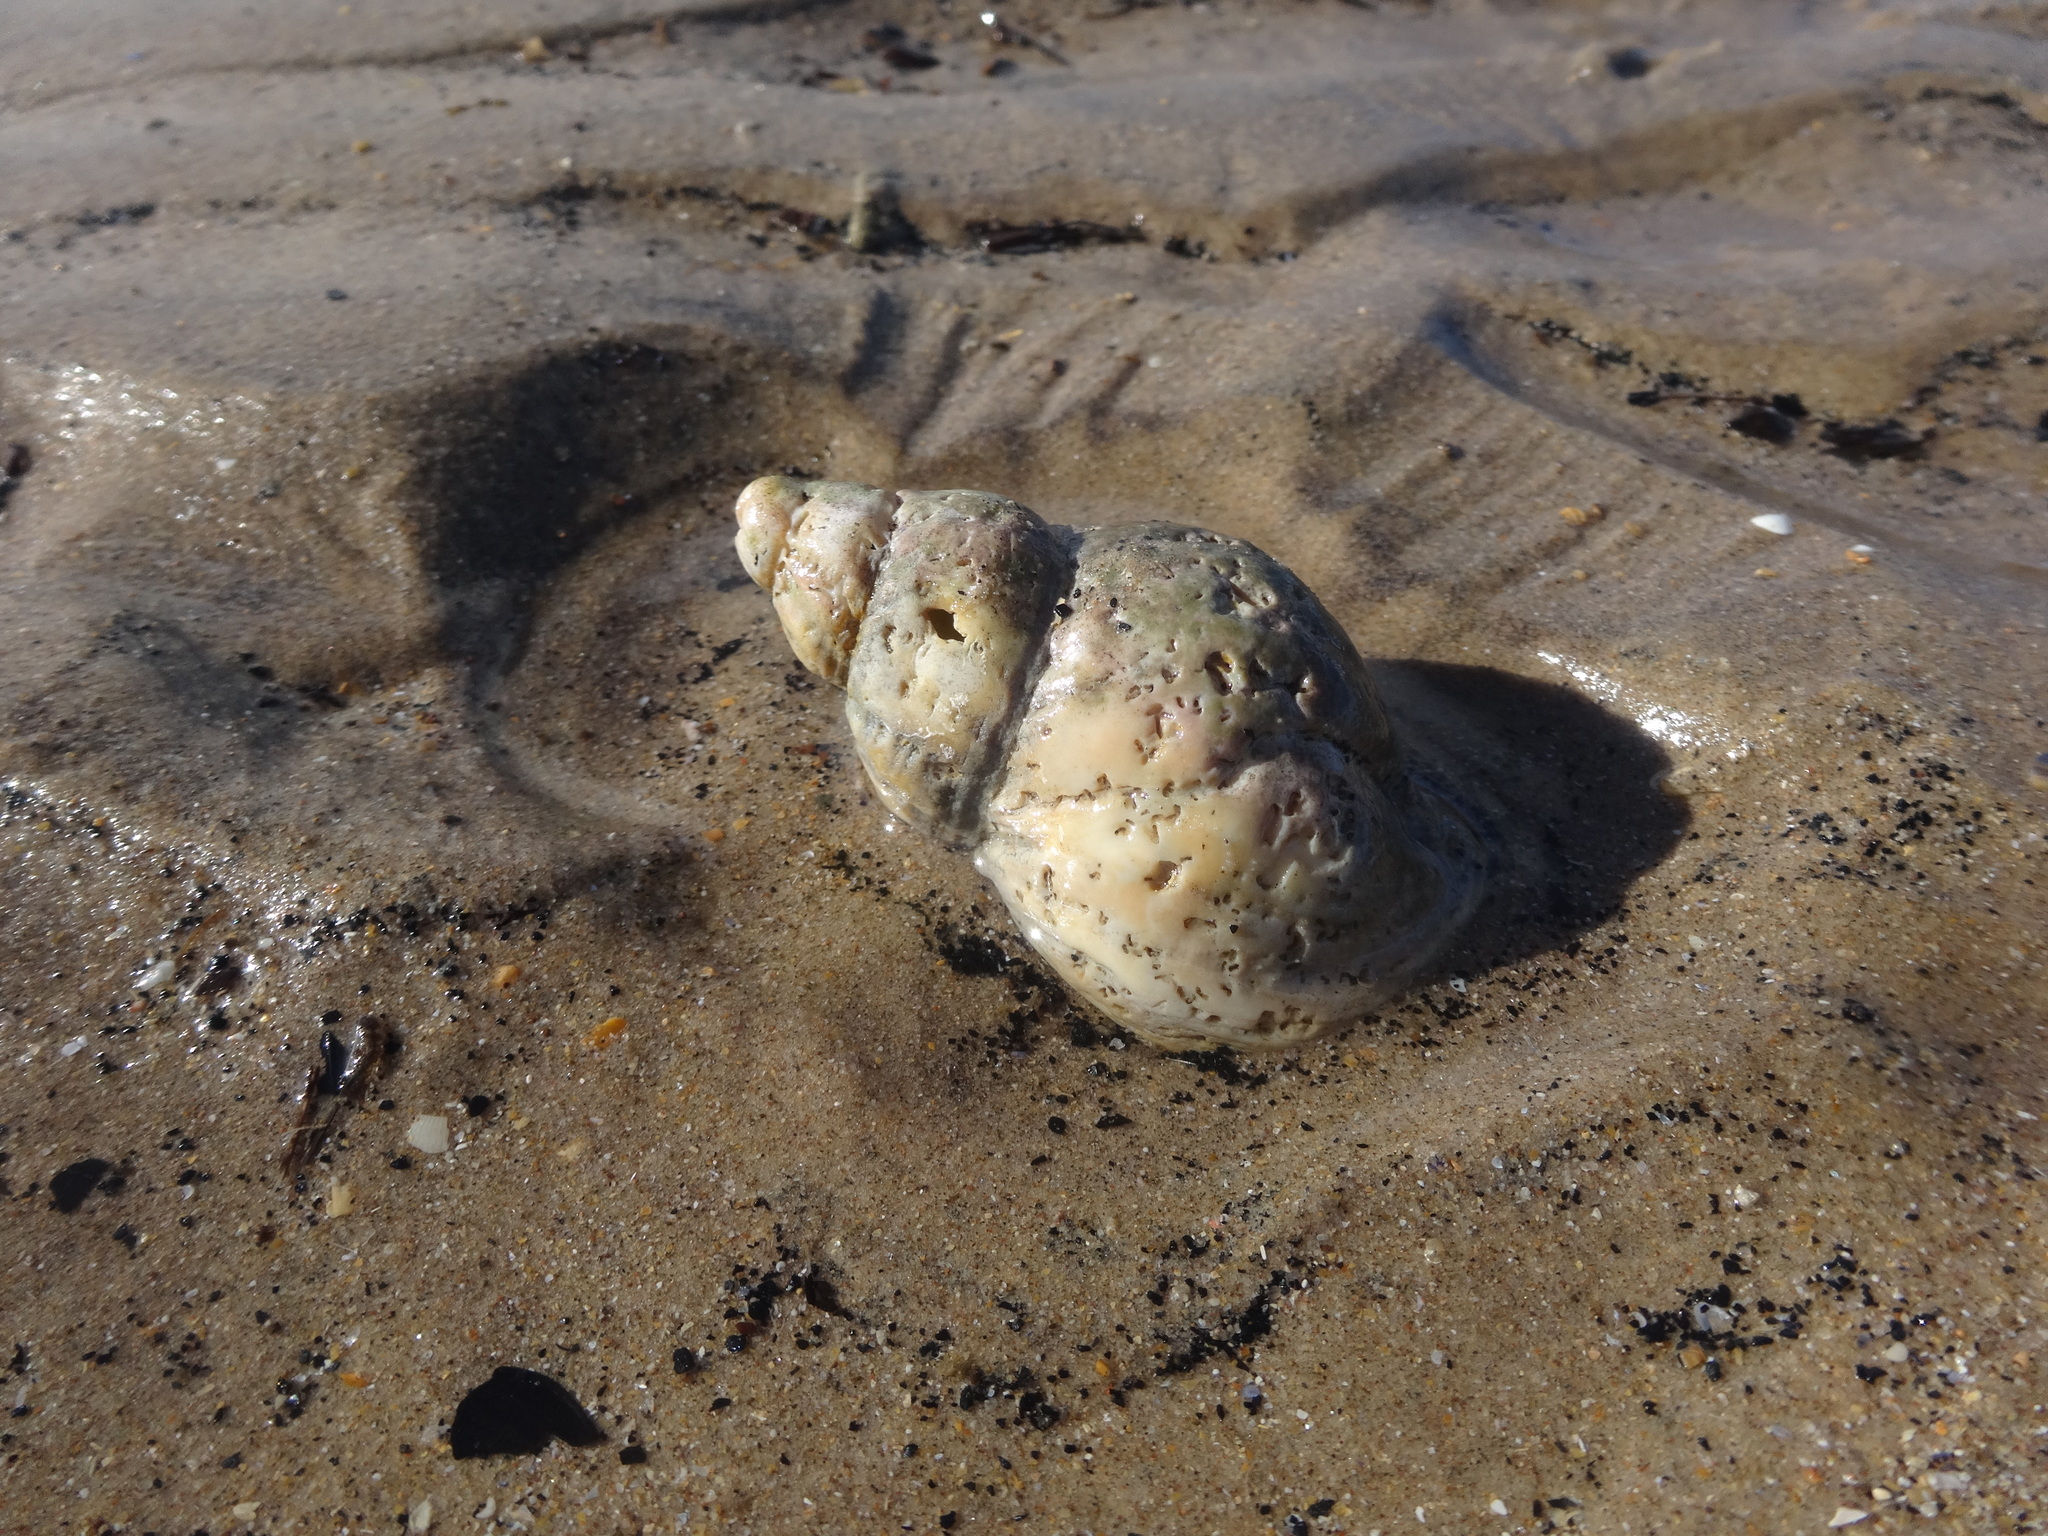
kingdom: Animalia
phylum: Mollusca
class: Gastropoda
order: Neogastropoda
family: Buccinidae
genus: Buccinum
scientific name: Buccinum undatum
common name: Common whelk
